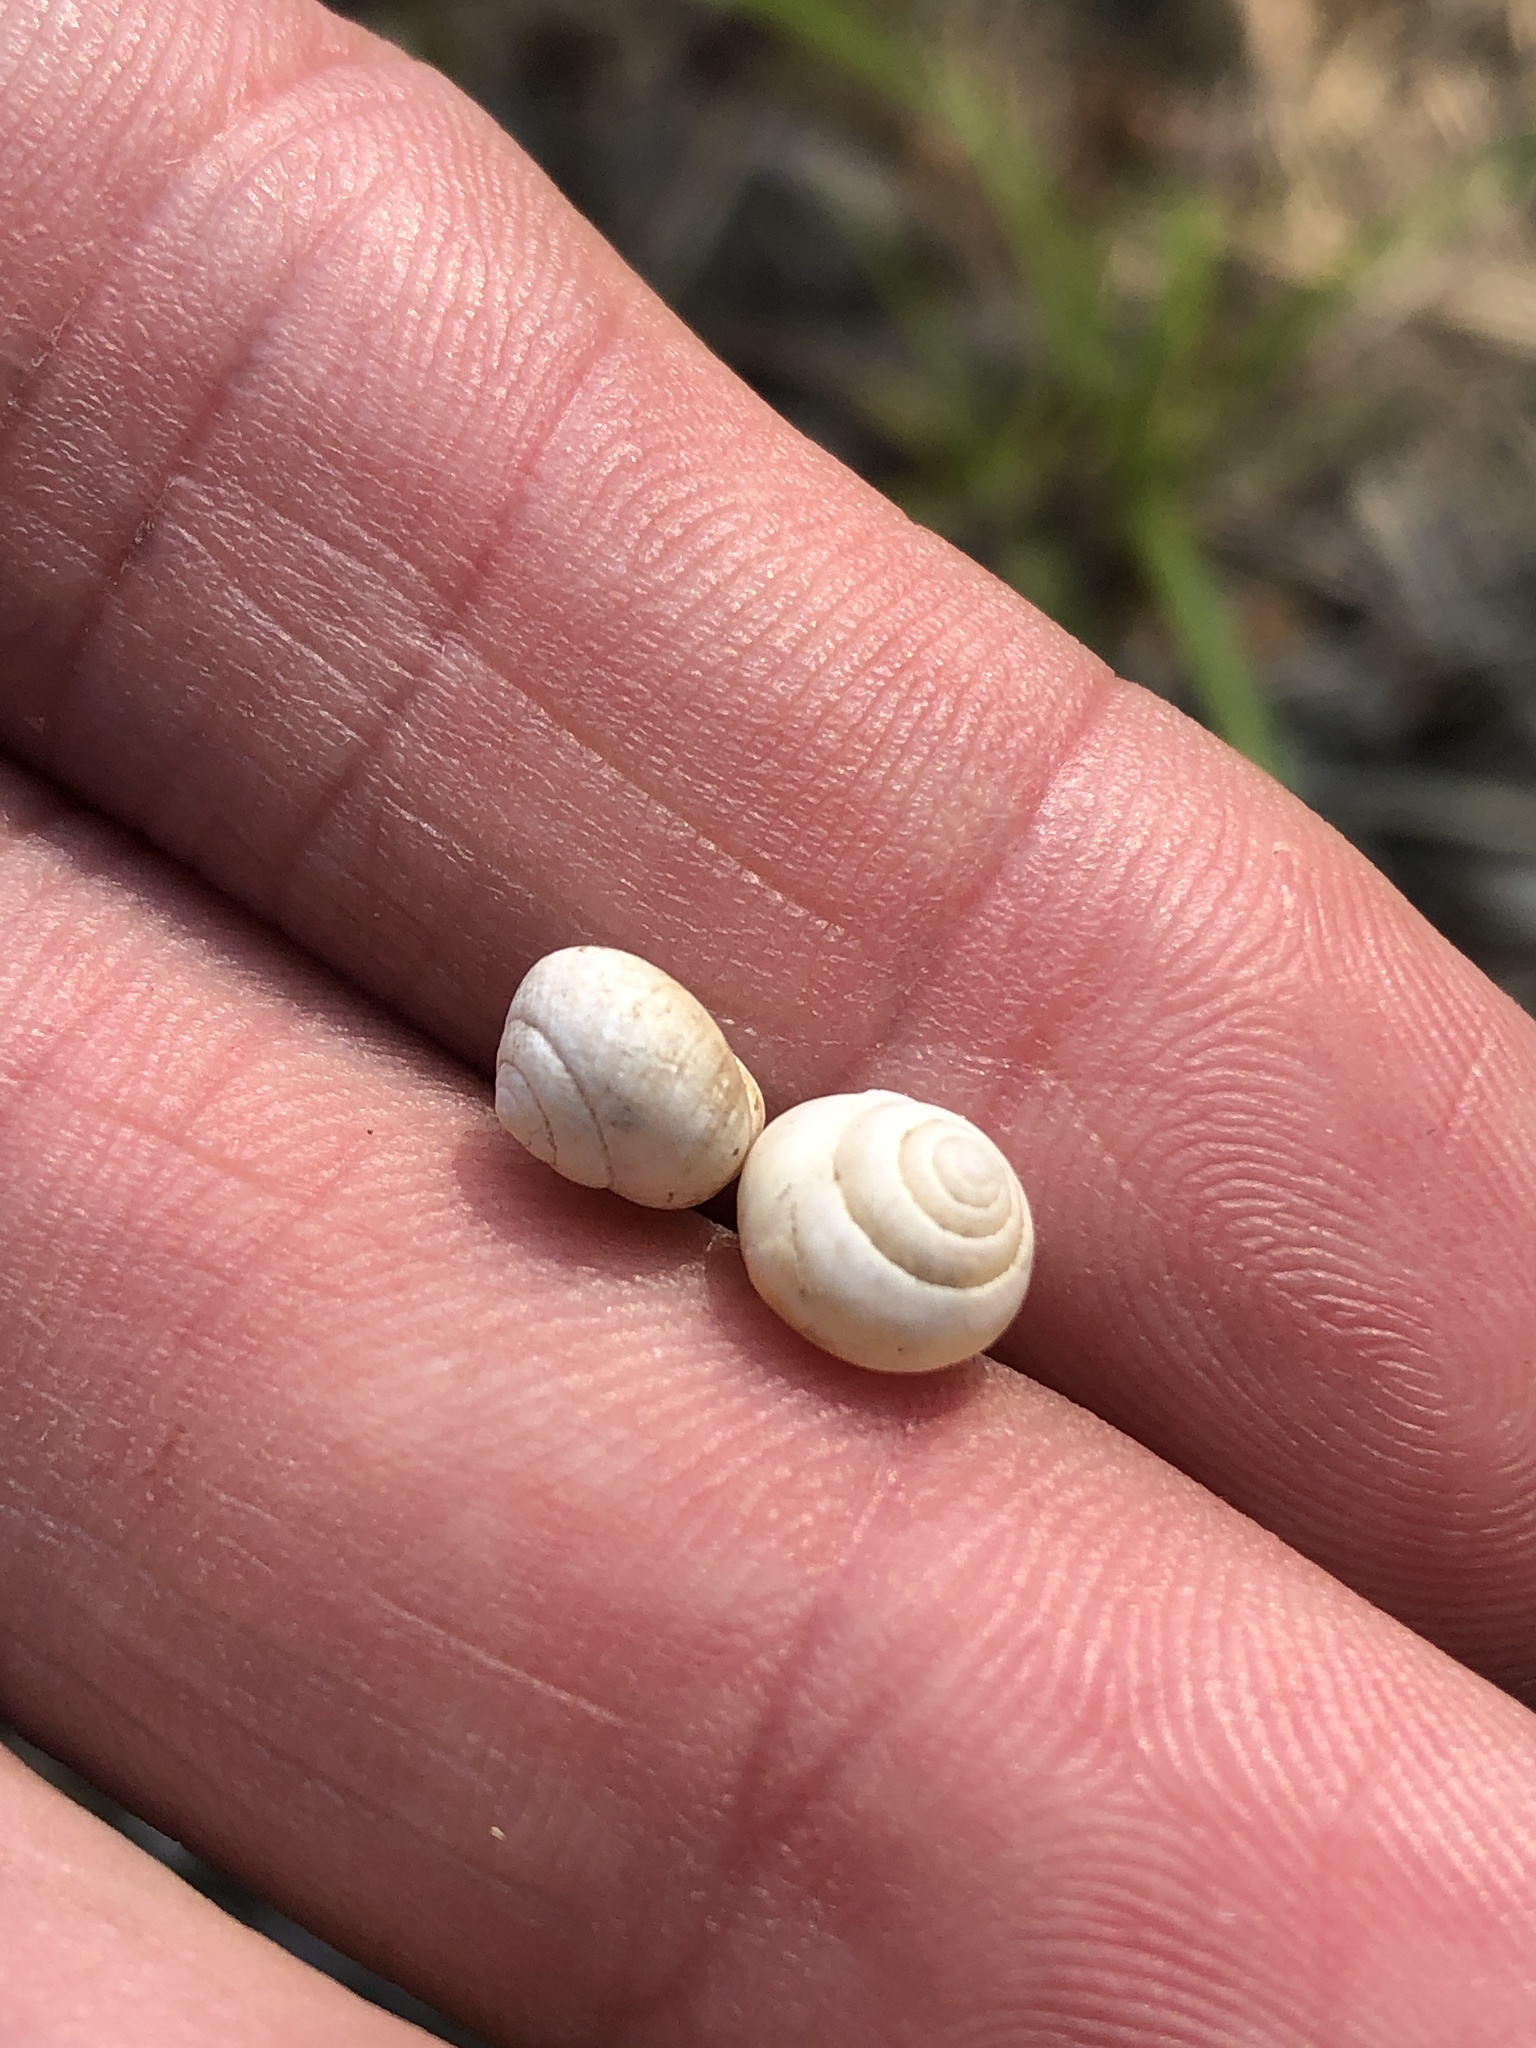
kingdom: Animalia
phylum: Mollusca
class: Gastropoda
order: Cycloneritida
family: Helicinidae
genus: Helicina
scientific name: Helicina orbiculata
